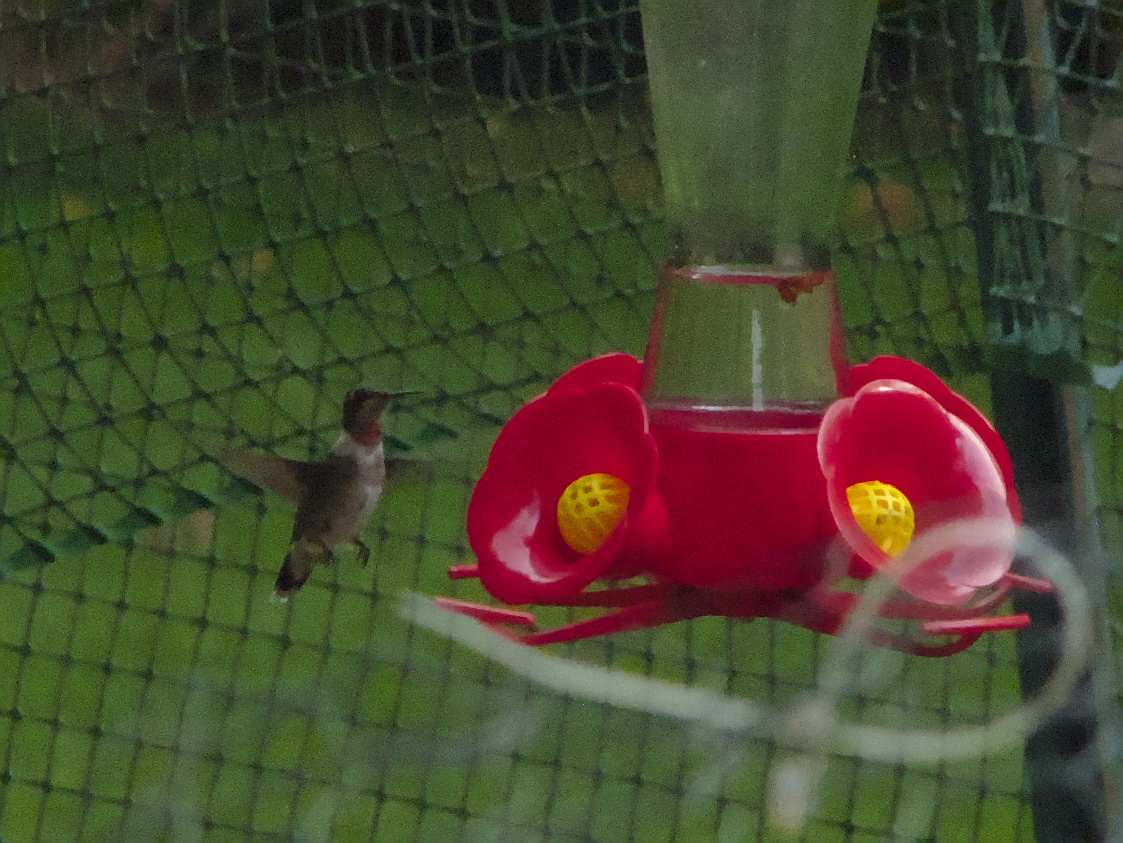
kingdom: Animalia
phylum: Chordata
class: Aves
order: Apodiformes
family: Trochilidae
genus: Archilochus
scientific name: Archilochus colubris
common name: Ruby-throated hummingbird
